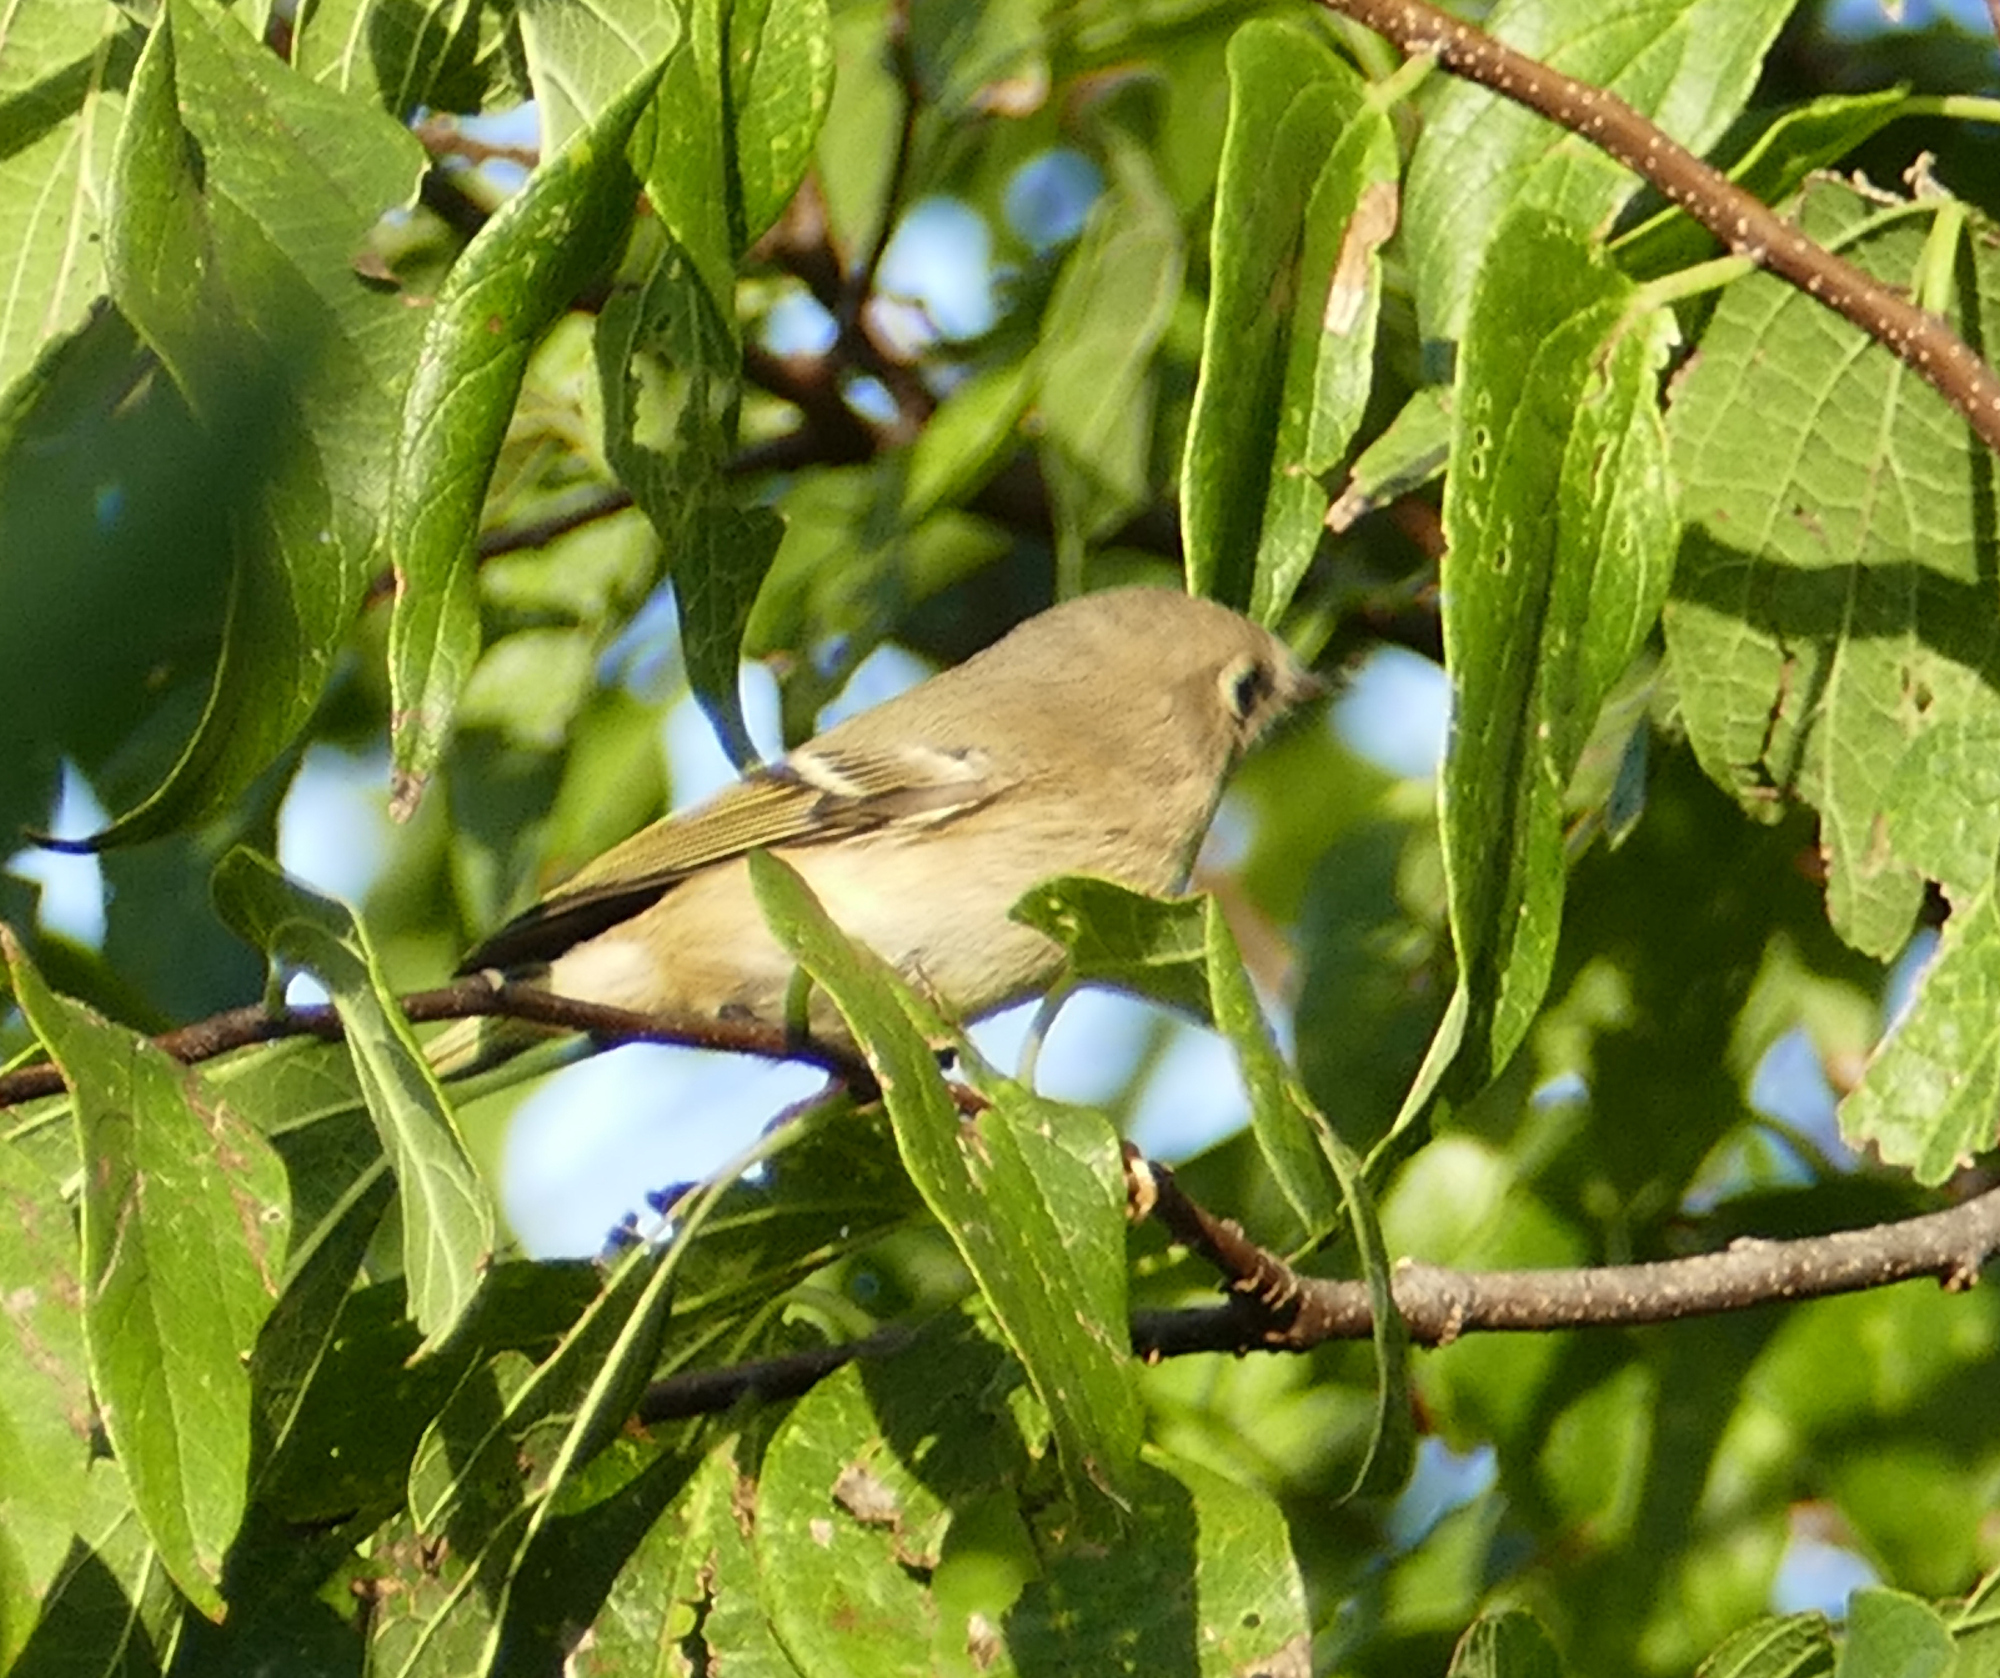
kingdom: Animalia
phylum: Chordata
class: Aves
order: Passeriformes
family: Regulidae
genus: Regulus
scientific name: Regulus calendula
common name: Ruby-crowned kinglet
